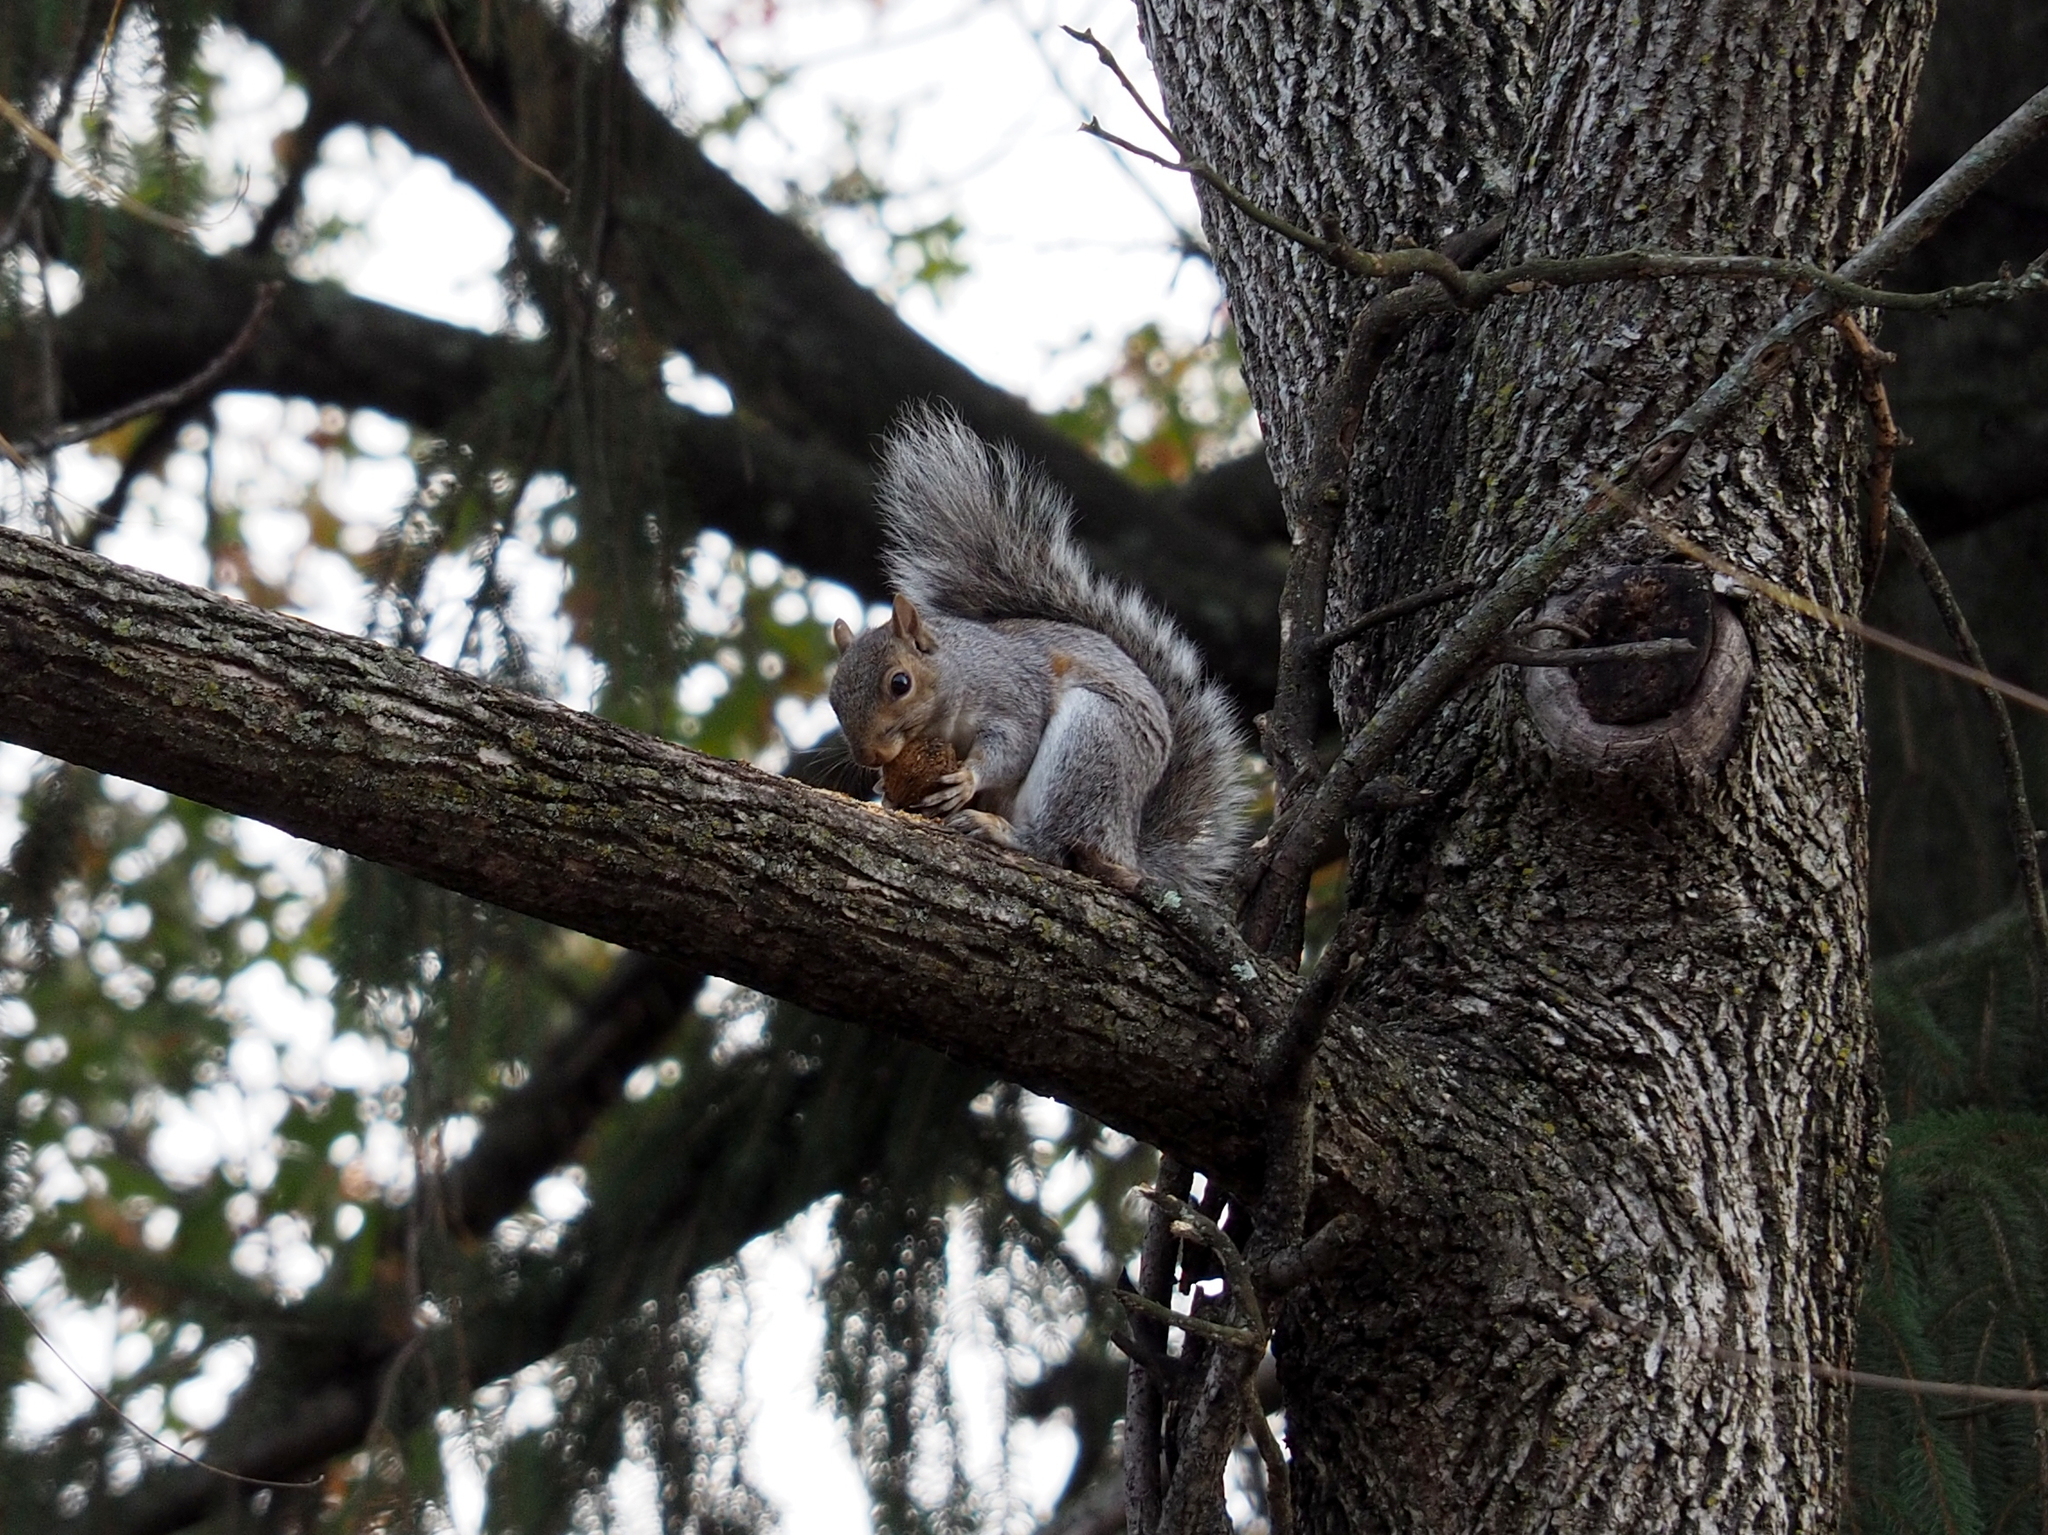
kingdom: Animalia
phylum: Chordata
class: Mammalia
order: Rodentia
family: Sciuridae
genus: Sciurus
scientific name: Sciurus carolinensis
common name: Eastern gray squirrel
